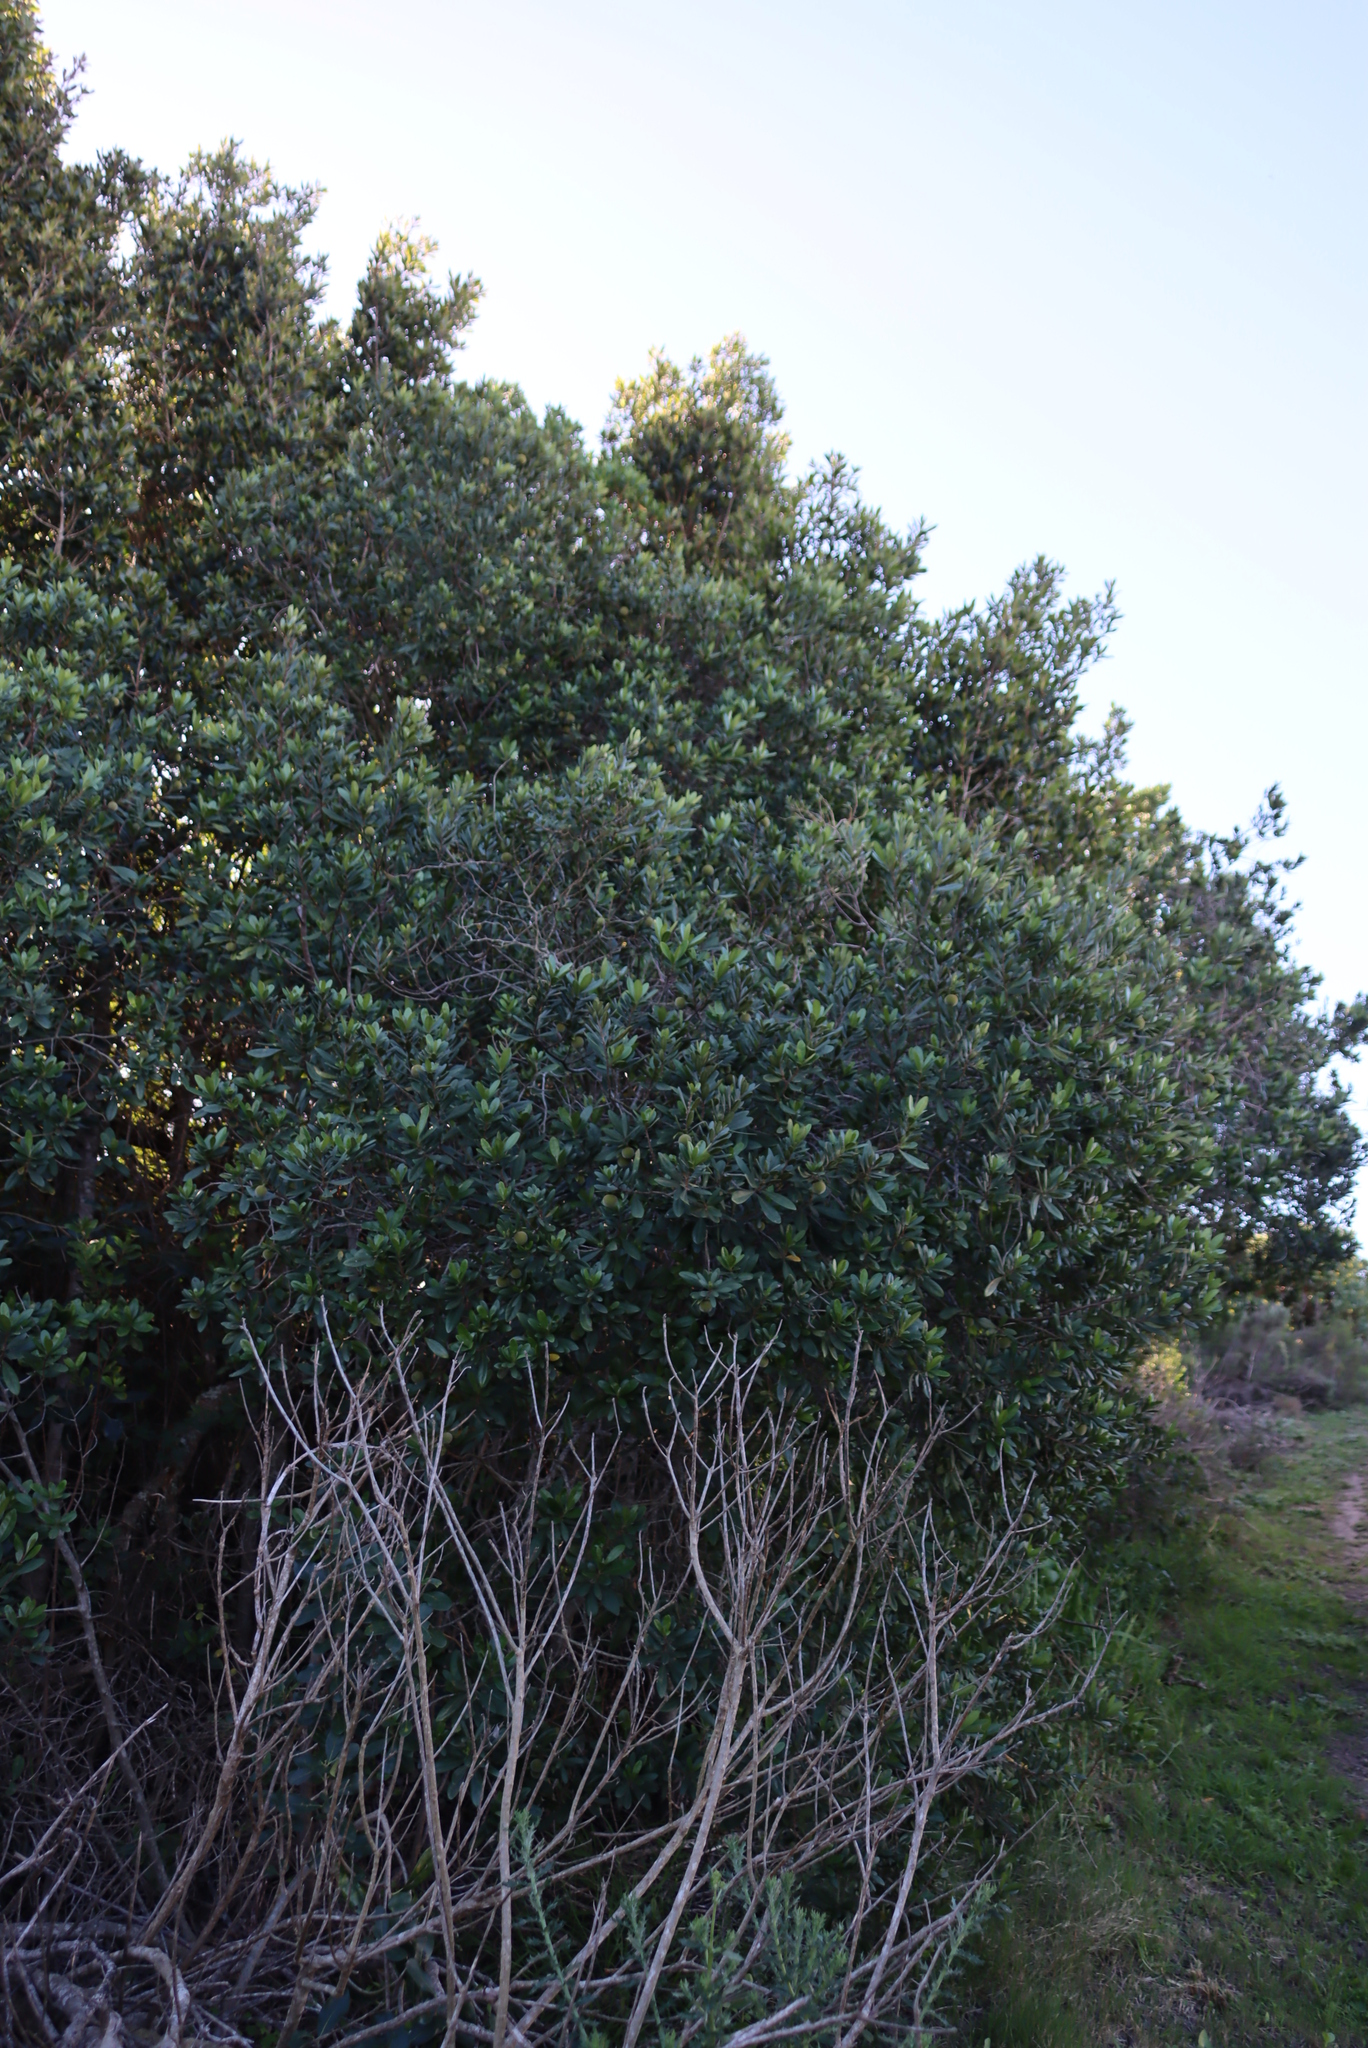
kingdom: Plantae
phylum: Tracheophyta
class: Magnoliopsida
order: Ericales
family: Ebenaceae
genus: Diospyros
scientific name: Diospyros dichrophylla
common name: Common star-apple
